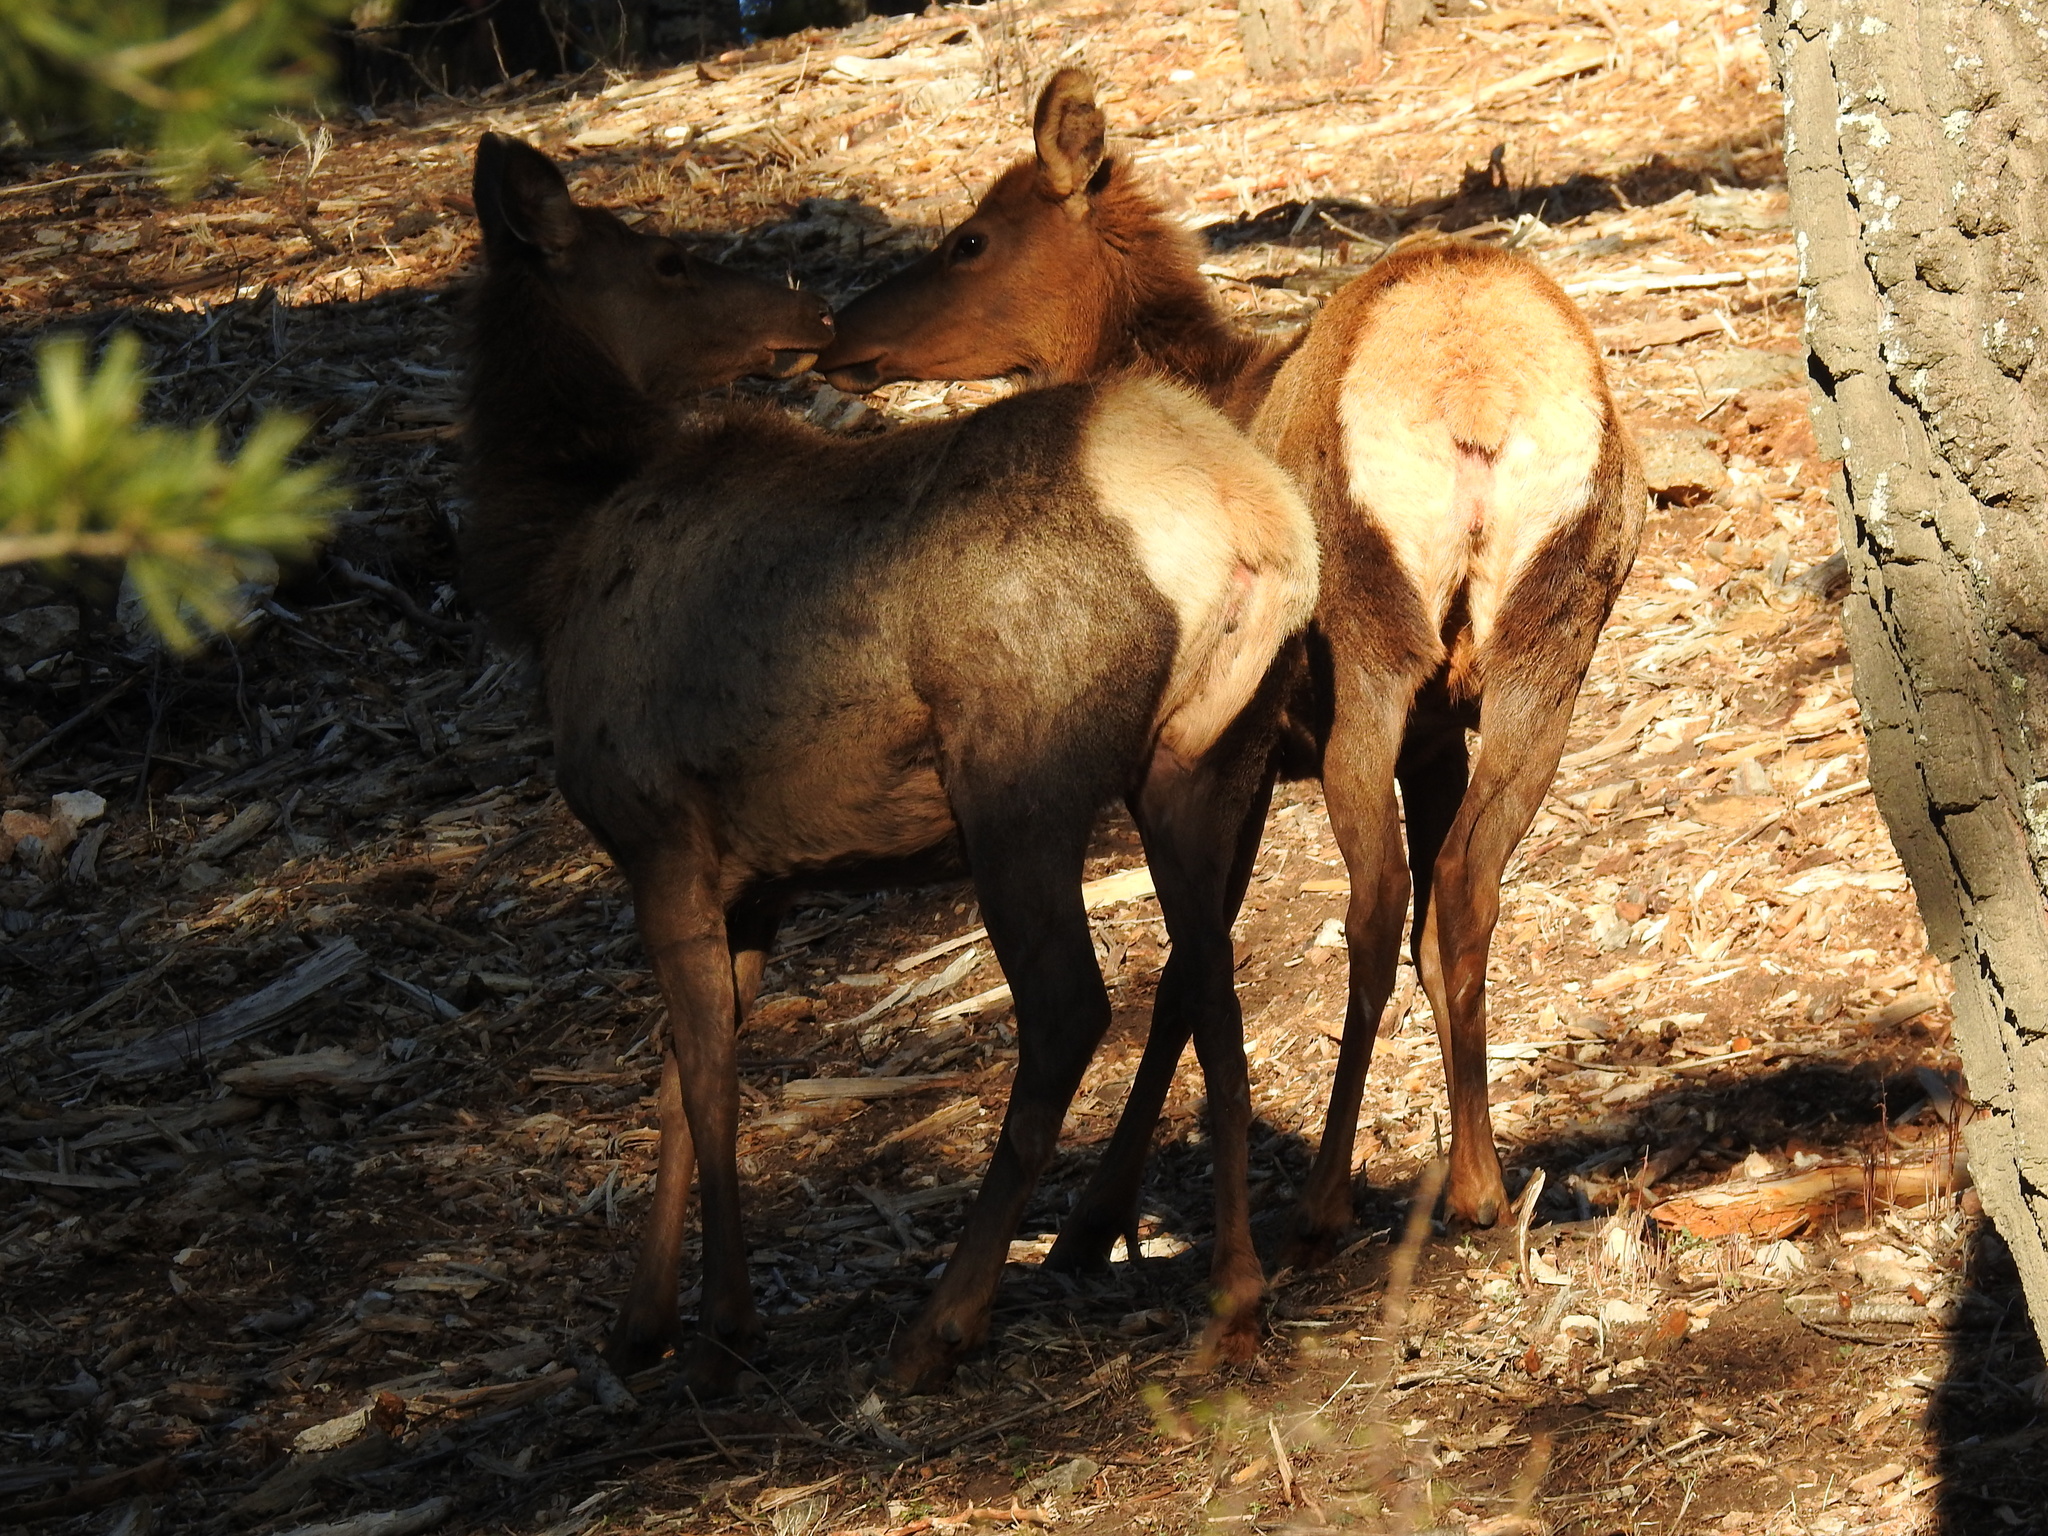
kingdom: Animalia
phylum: Chordata
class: Mammalia
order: Artiodactyla
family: Cervidae
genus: Cervus
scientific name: Cervus elaphus
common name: Red deer
